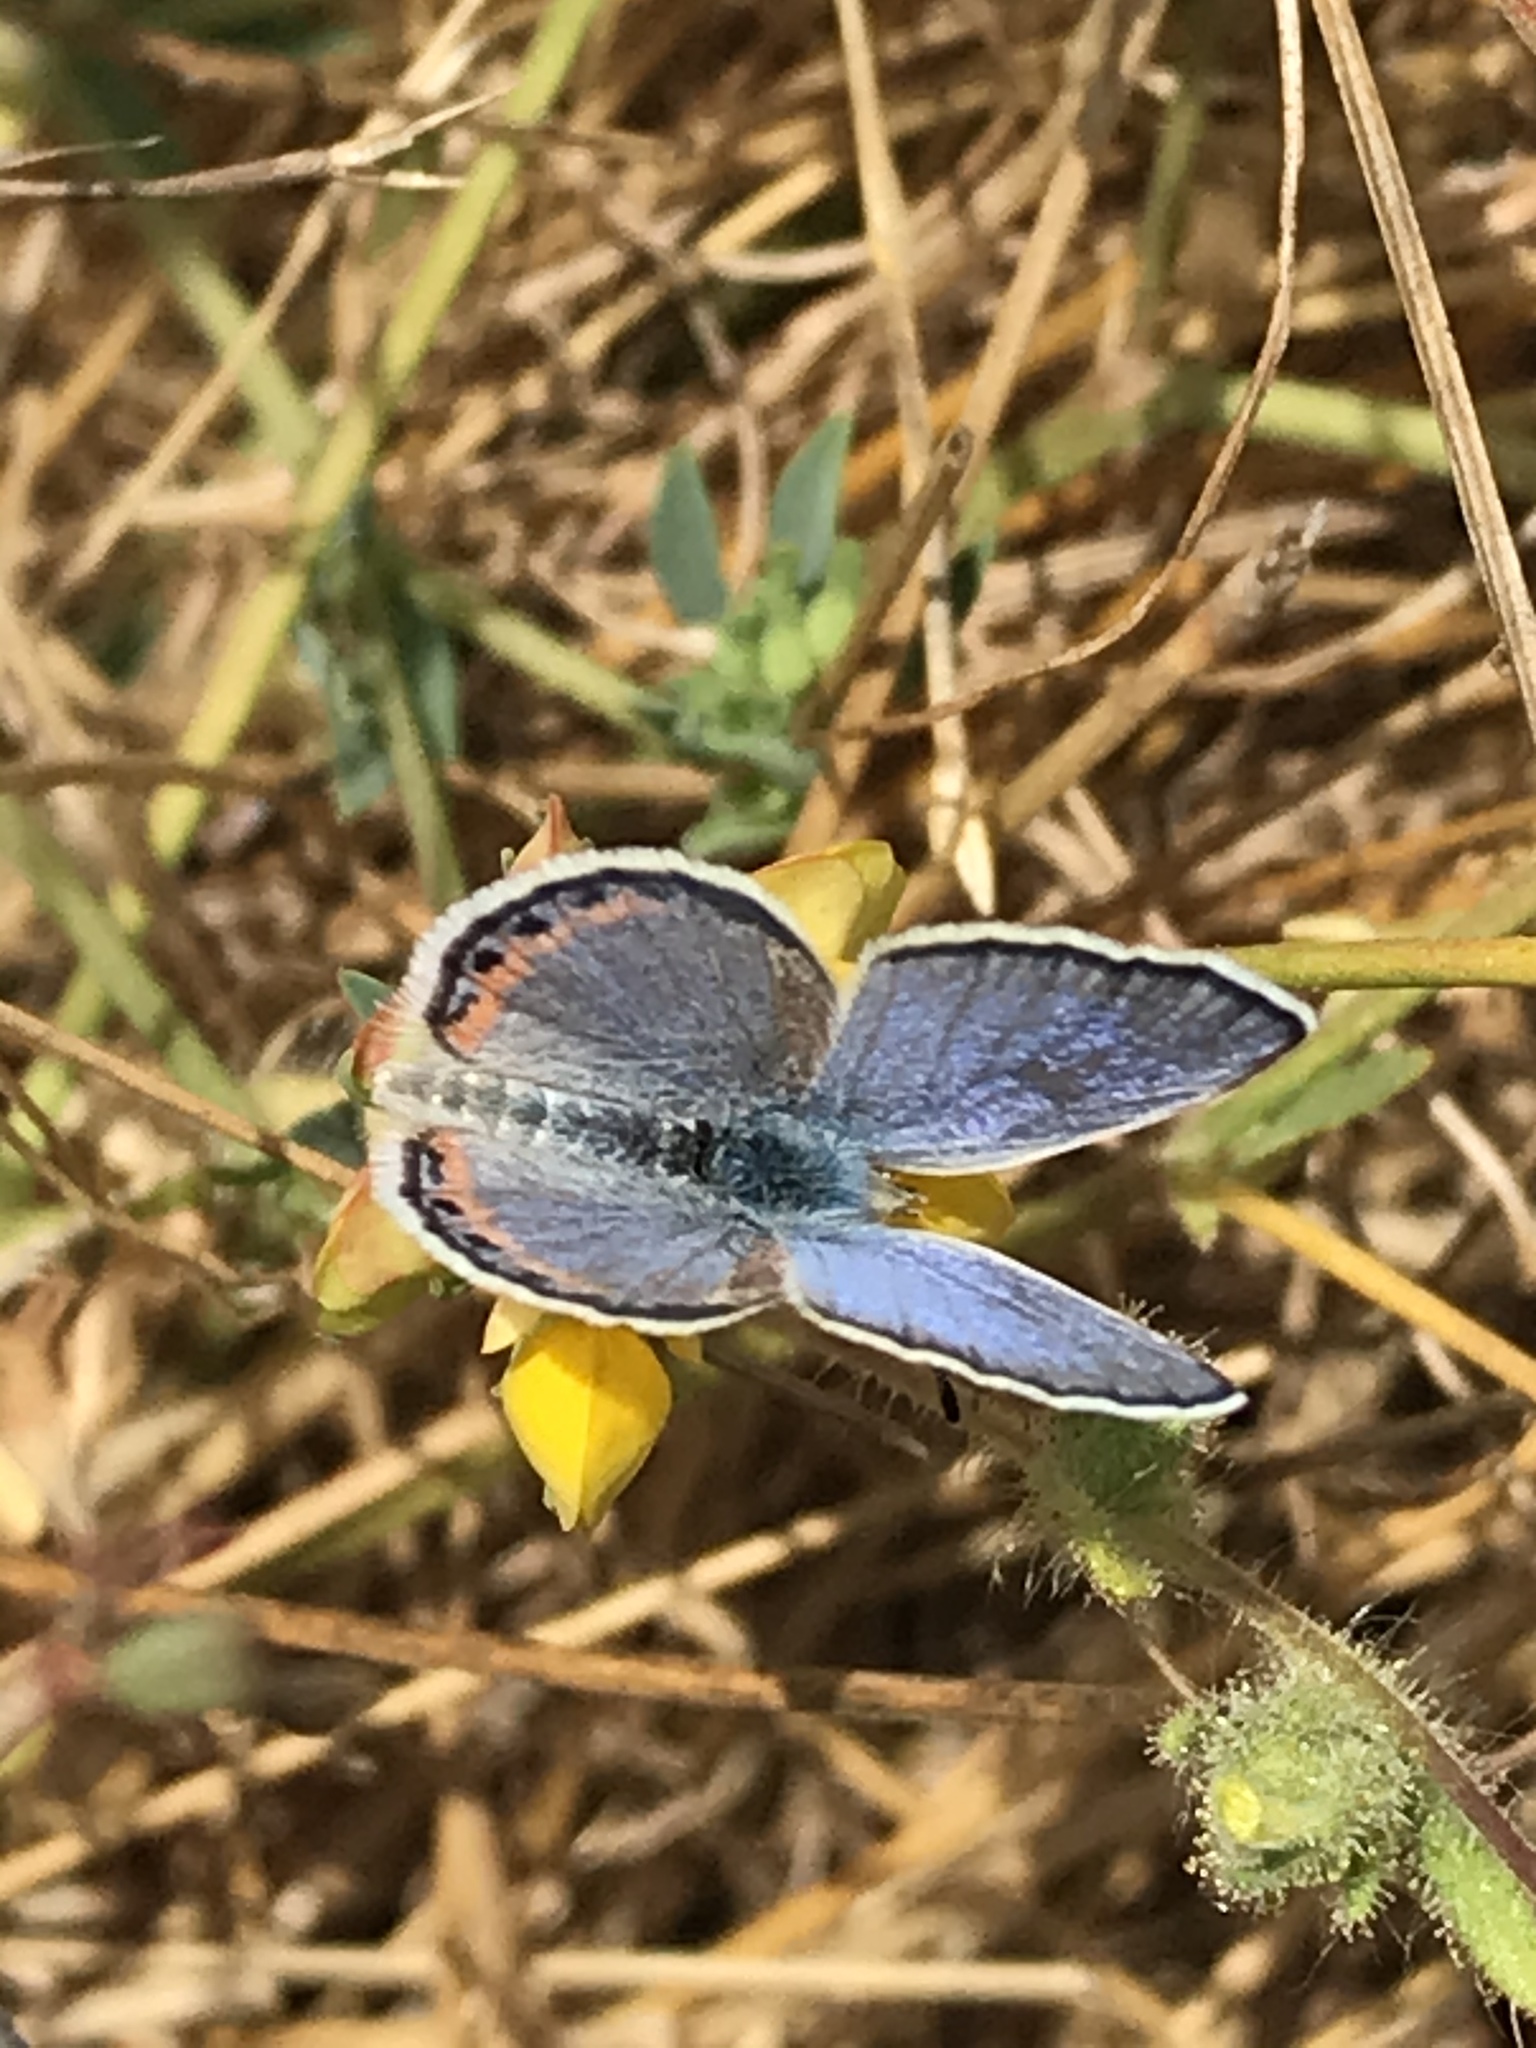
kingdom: Animalia
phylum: Arthropoda
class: Insecta
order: Lepidoptera
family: Lycaenidae
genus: Icaricia
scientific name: Icaricia acmon
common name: Acmon blue
